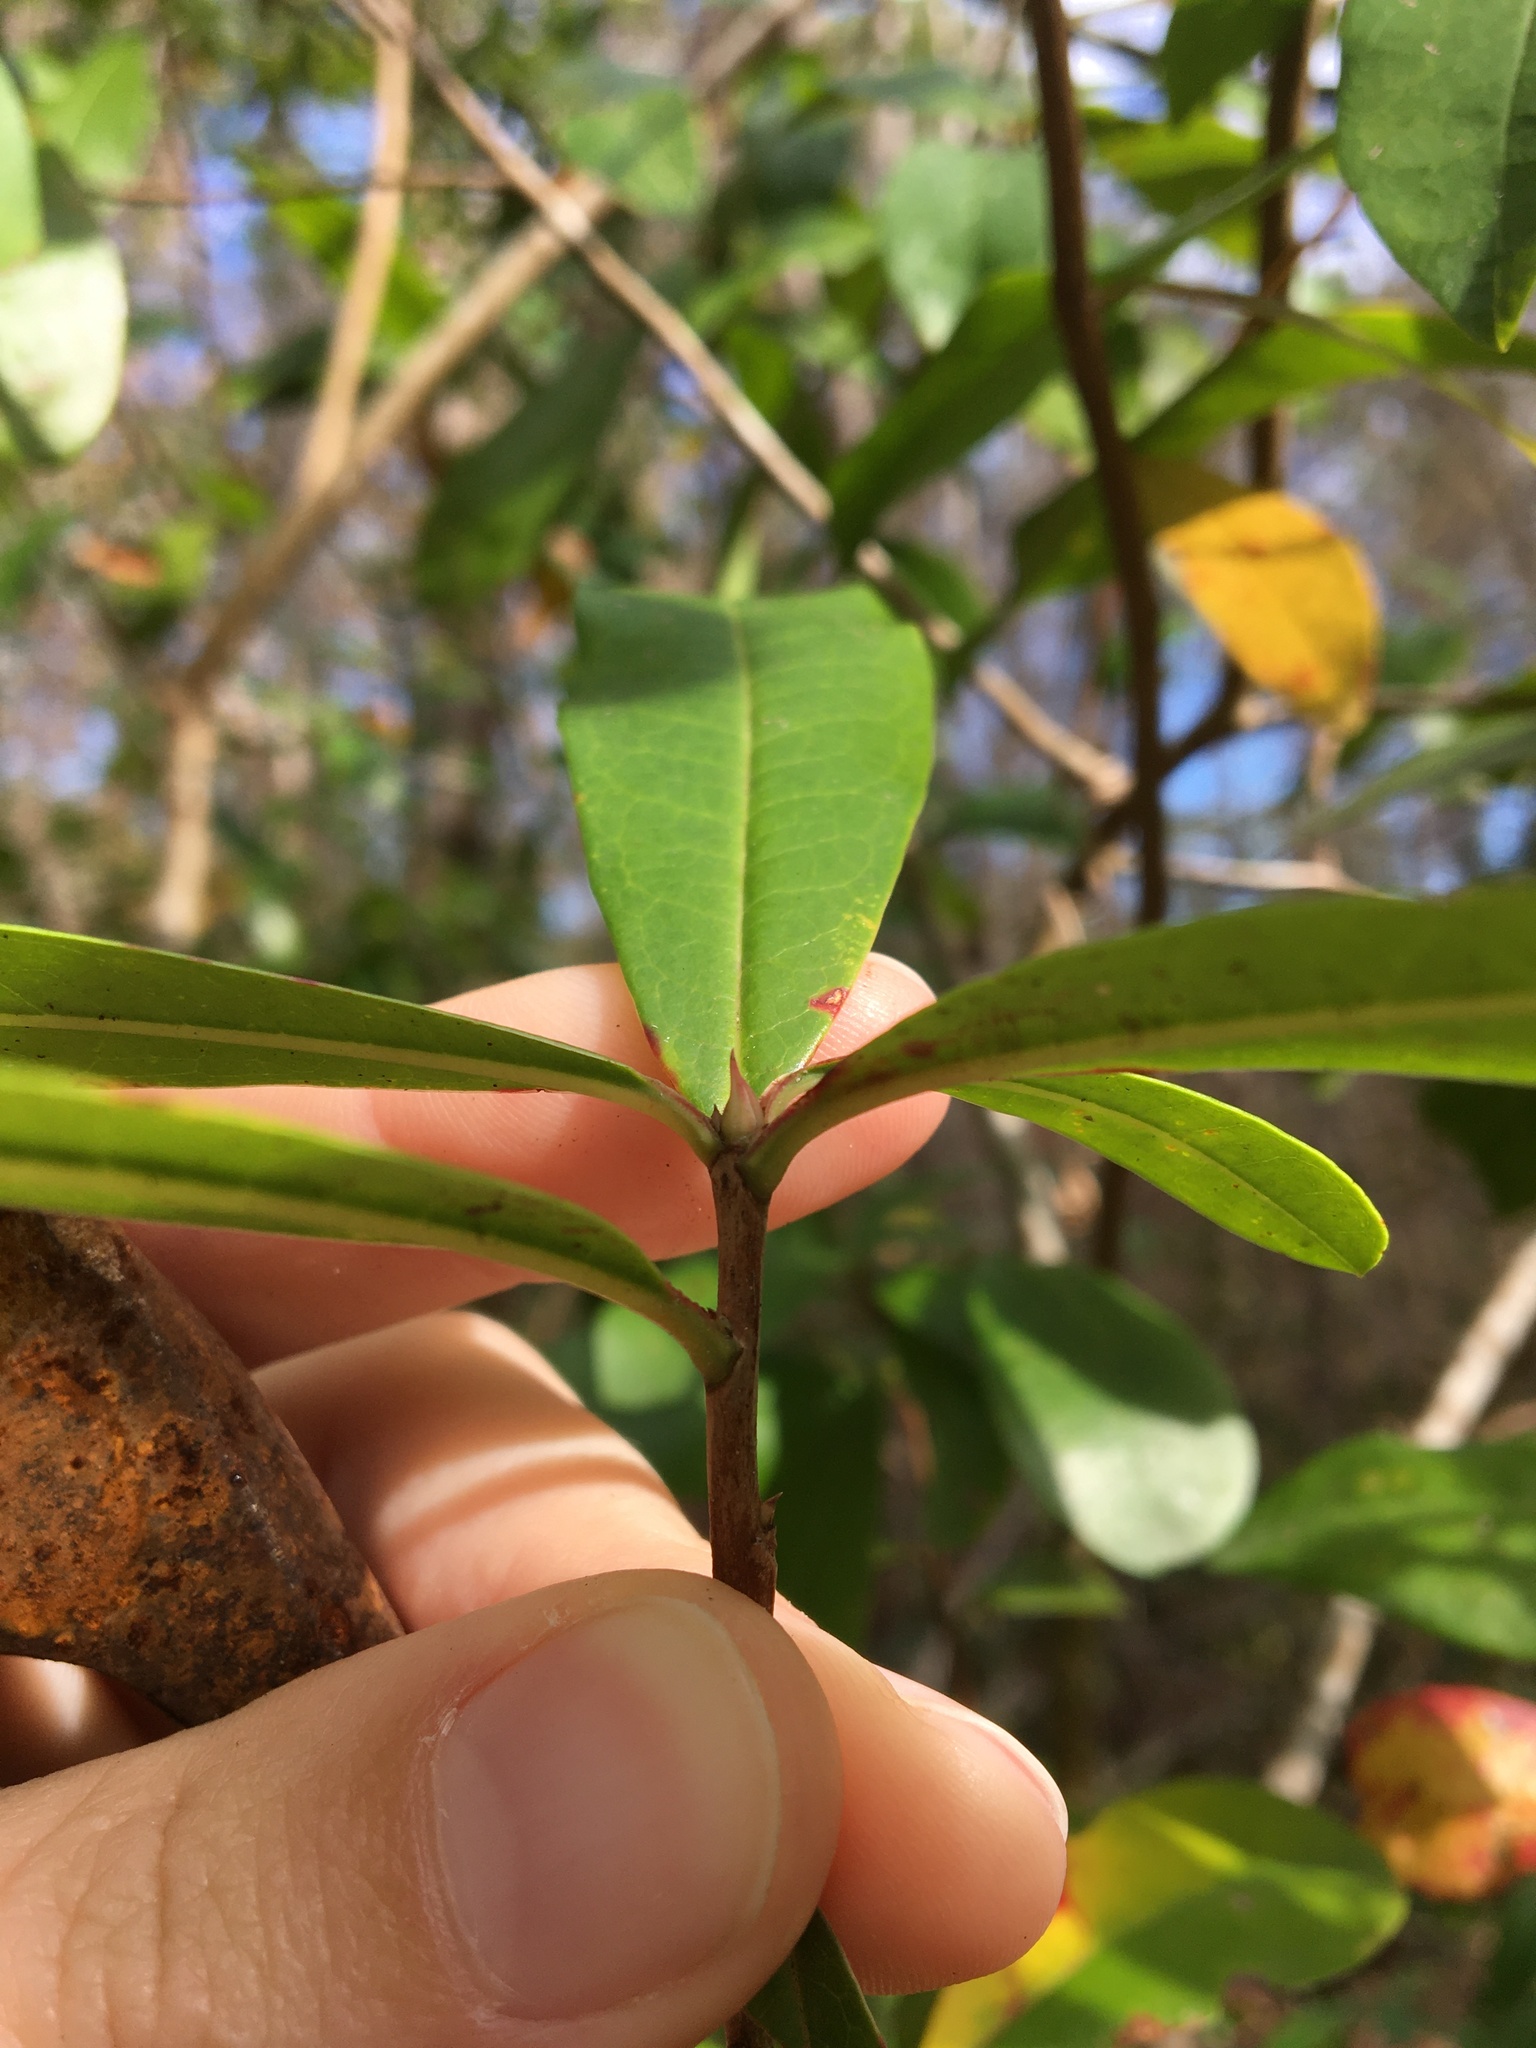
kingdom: Plantae
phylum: Tracheophyta
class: Magnoliopsida
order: Ericales
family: Cyrillaceae
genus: Cyrilla
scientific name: Cyrilla racemiflora
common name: Black titi
